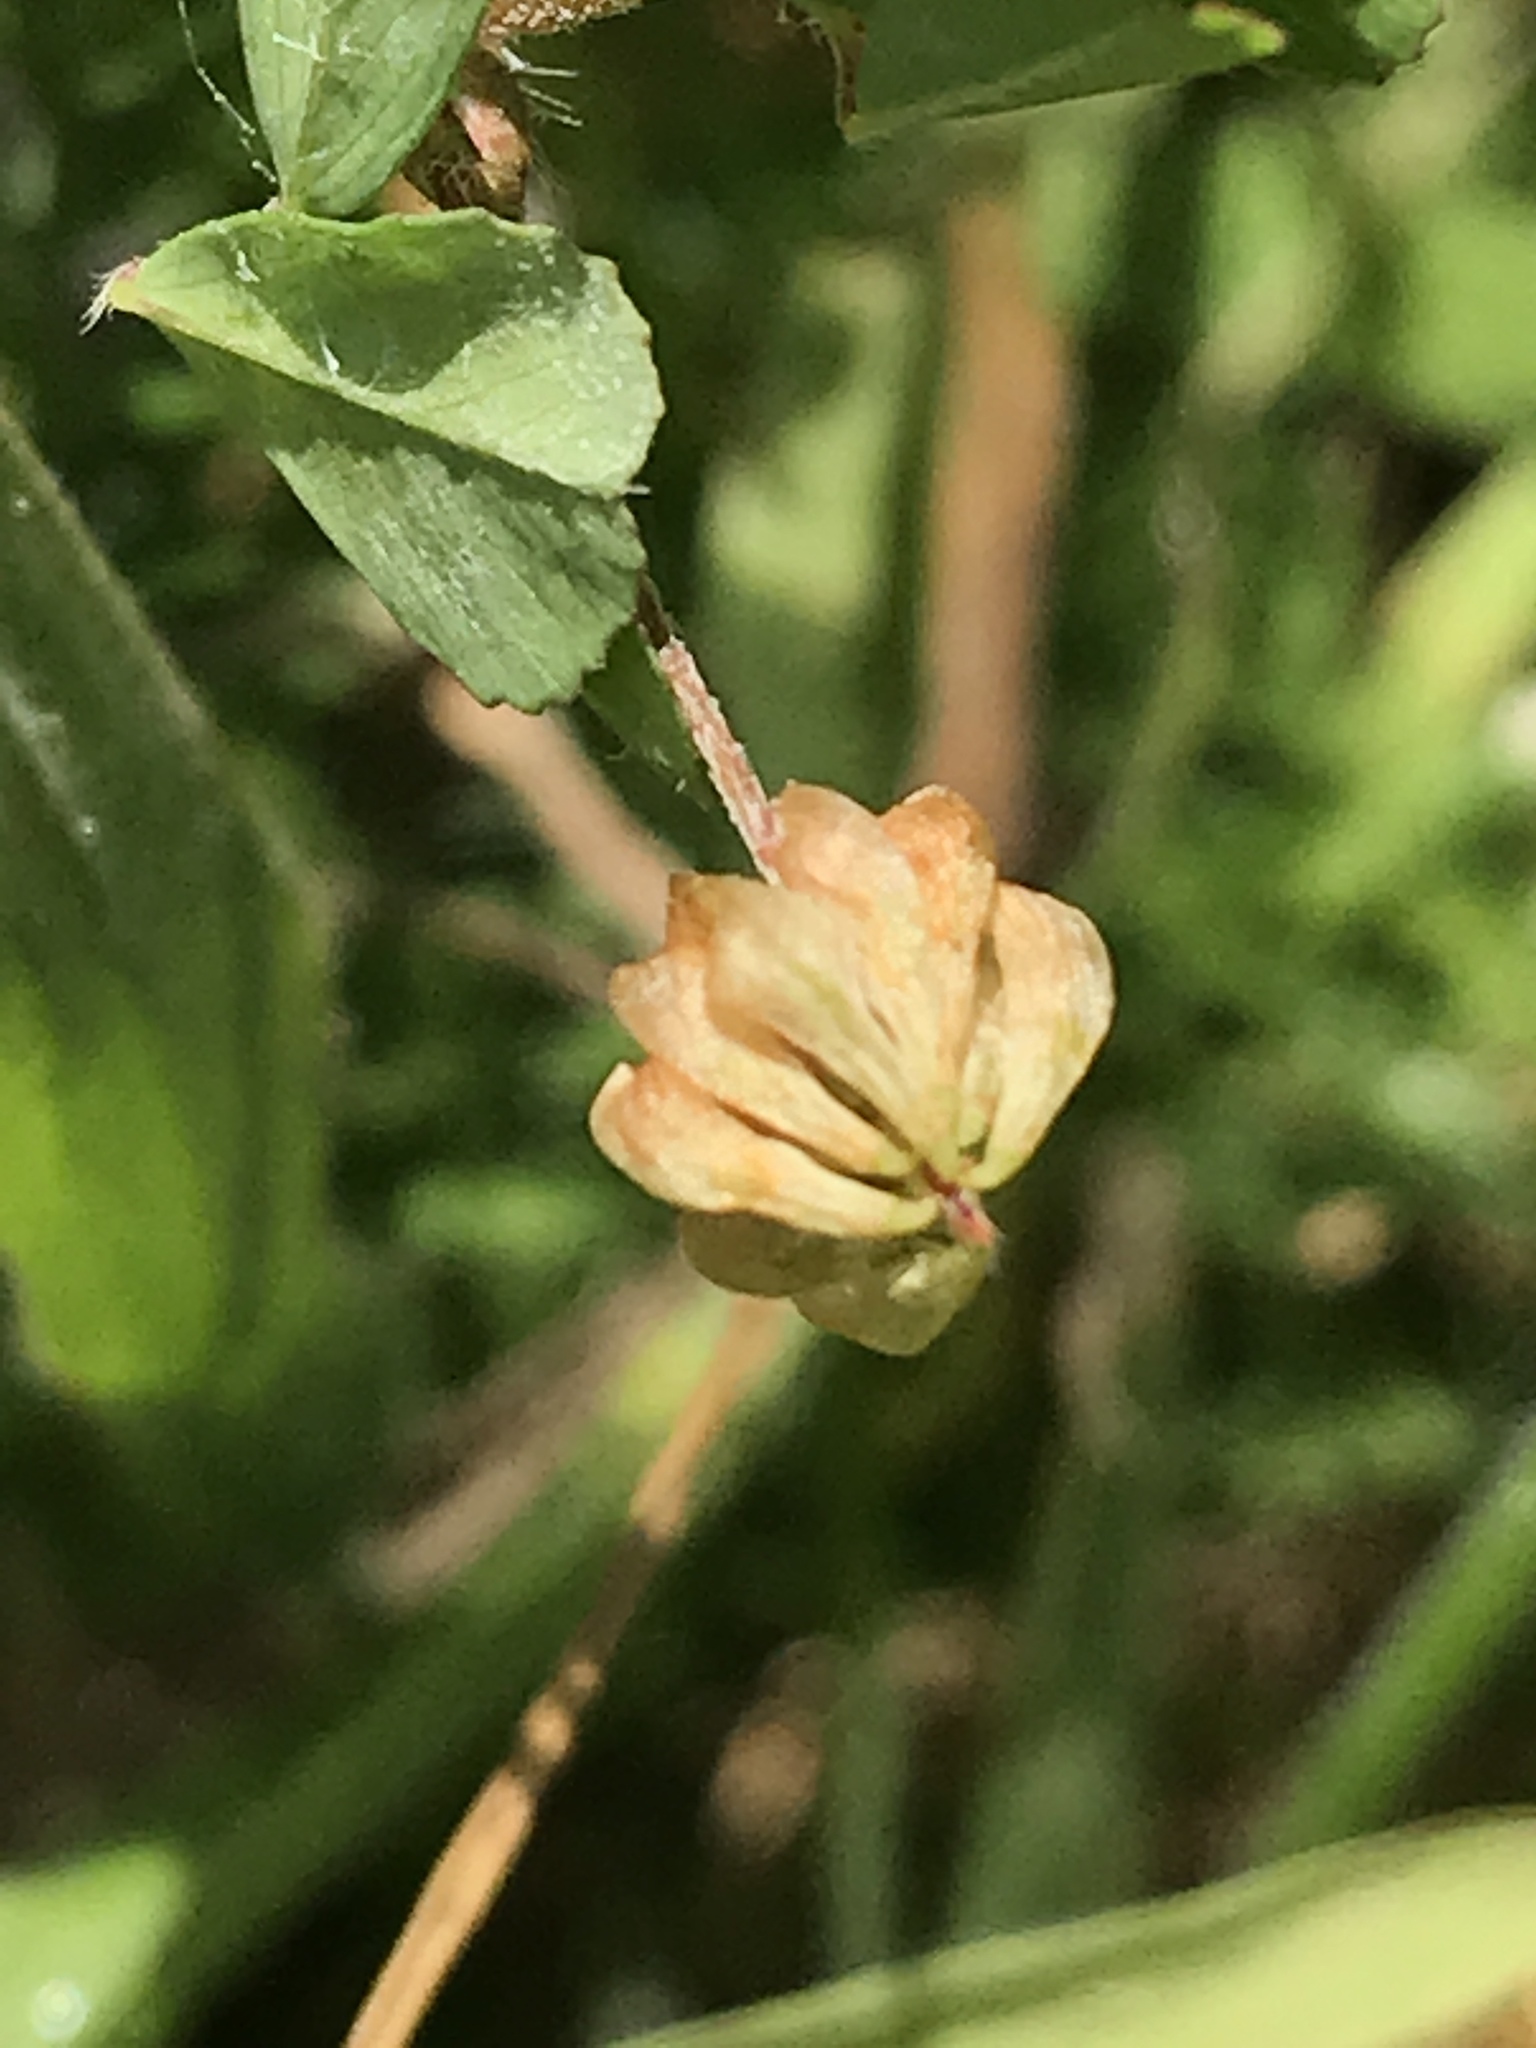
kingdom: Plantae
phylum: Tracheophyta
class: Magnoliopsida
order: Fabales
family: Fabaceae
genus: Trifolium
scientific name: Trifolium dubium
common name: Suckling clover
